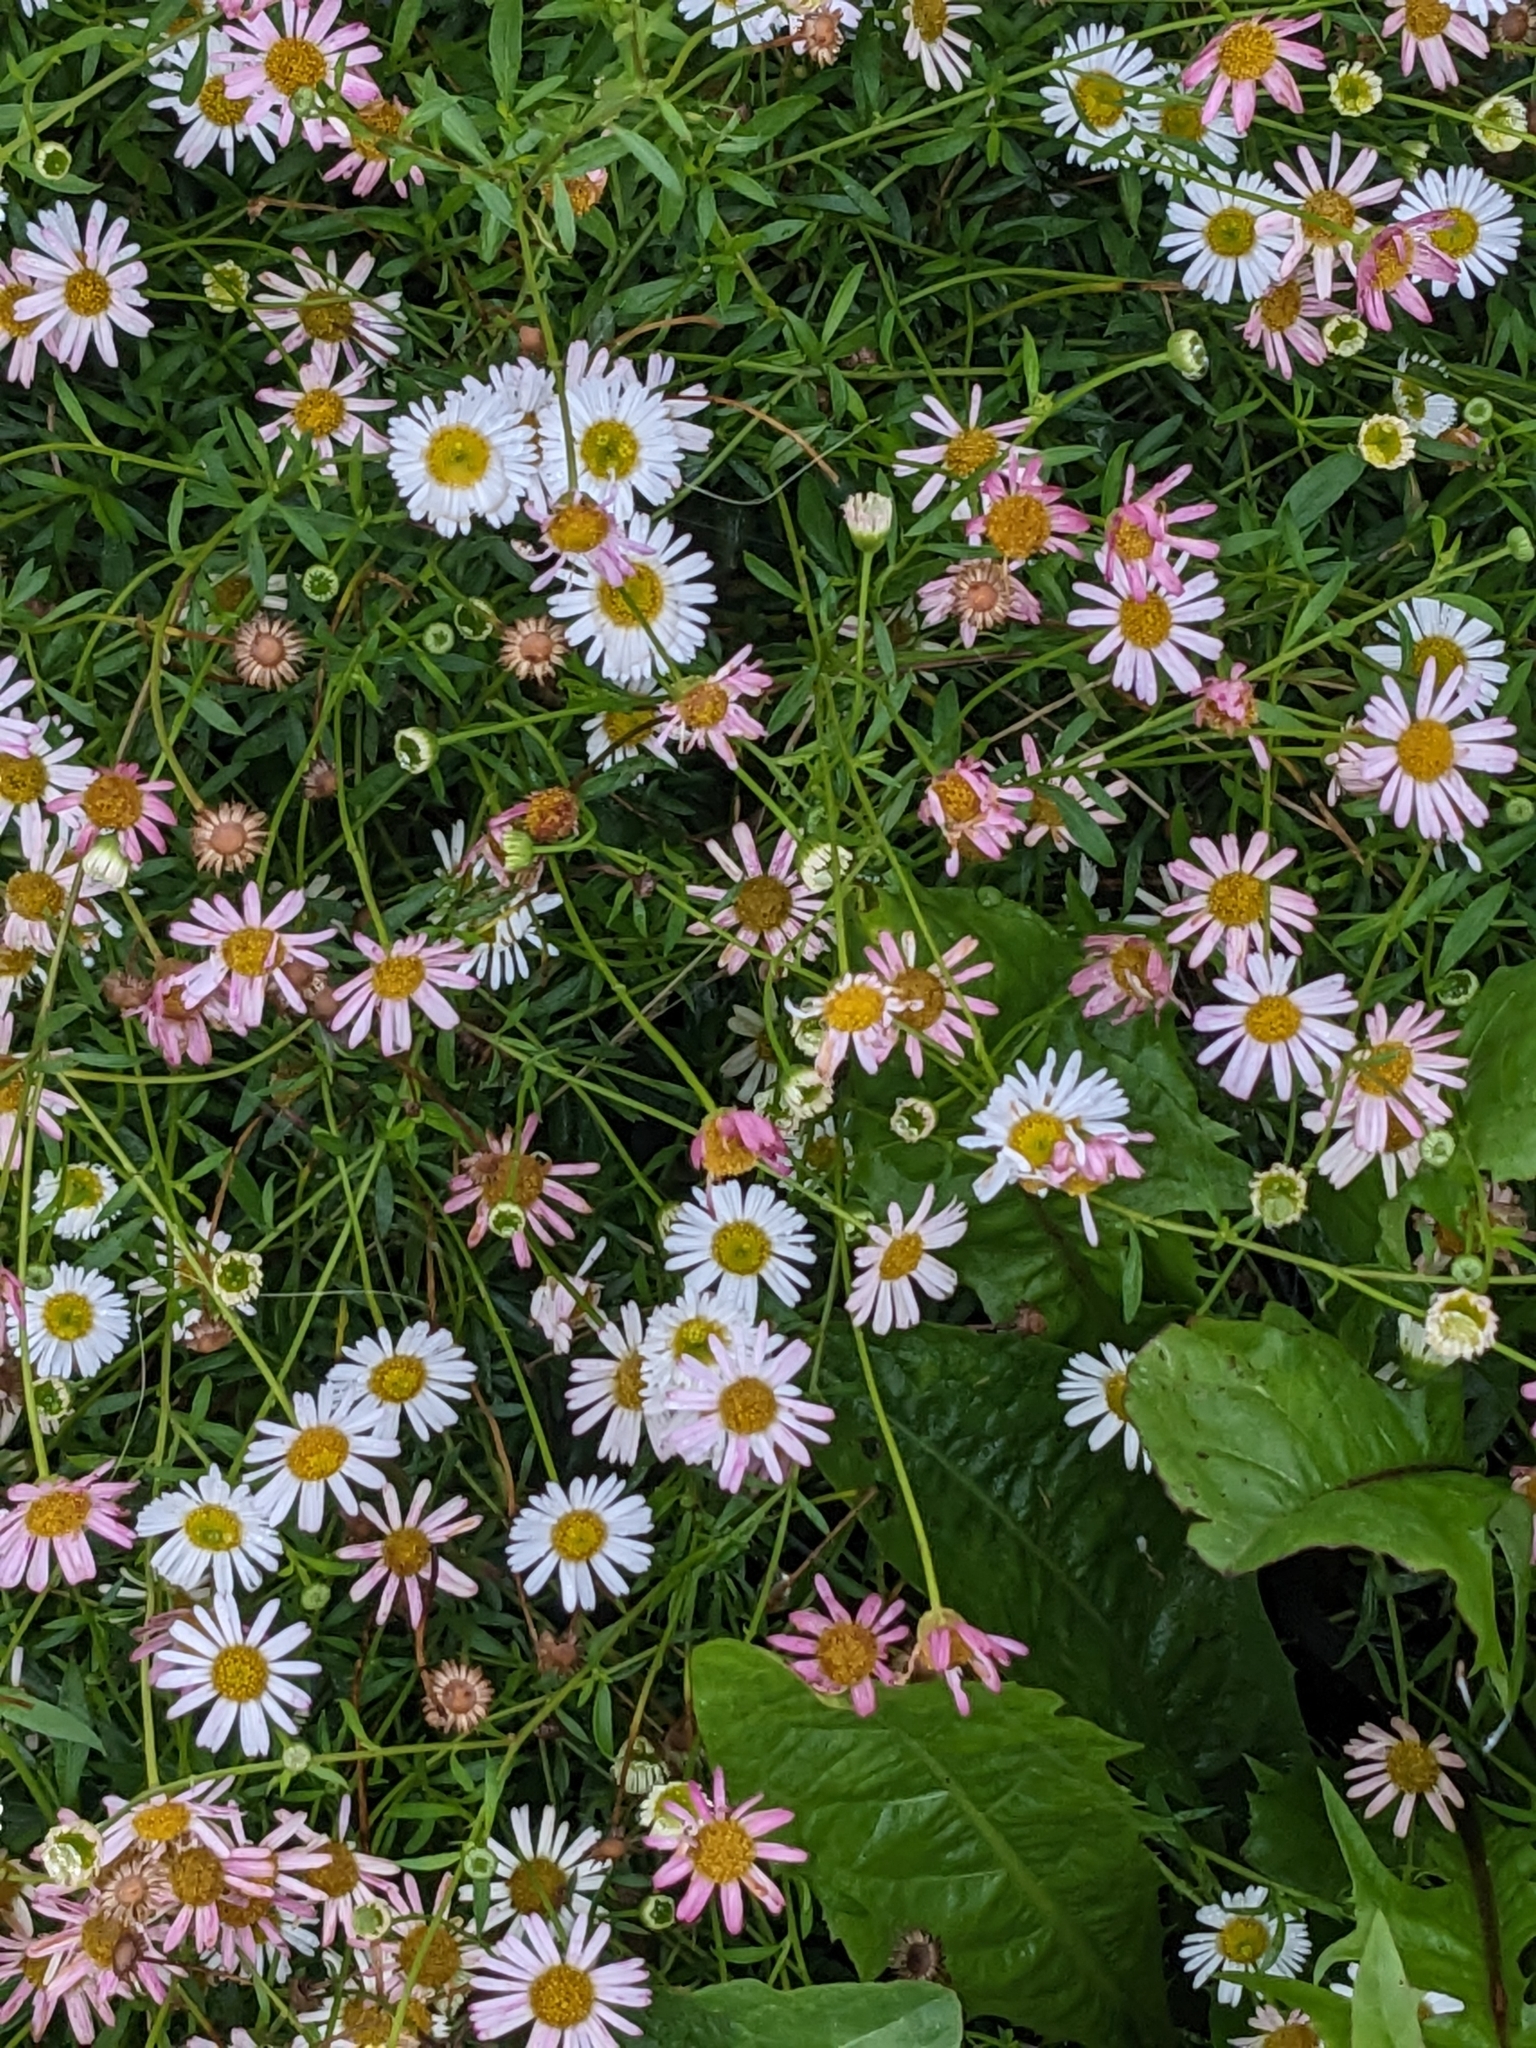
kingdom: Plantae
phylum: Tracheophyta
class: Magnoliopsida
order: Asterales
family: Asteraceae
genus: Erigeron
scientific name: Erigeron karvinskianus
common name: Mexican fleabane
